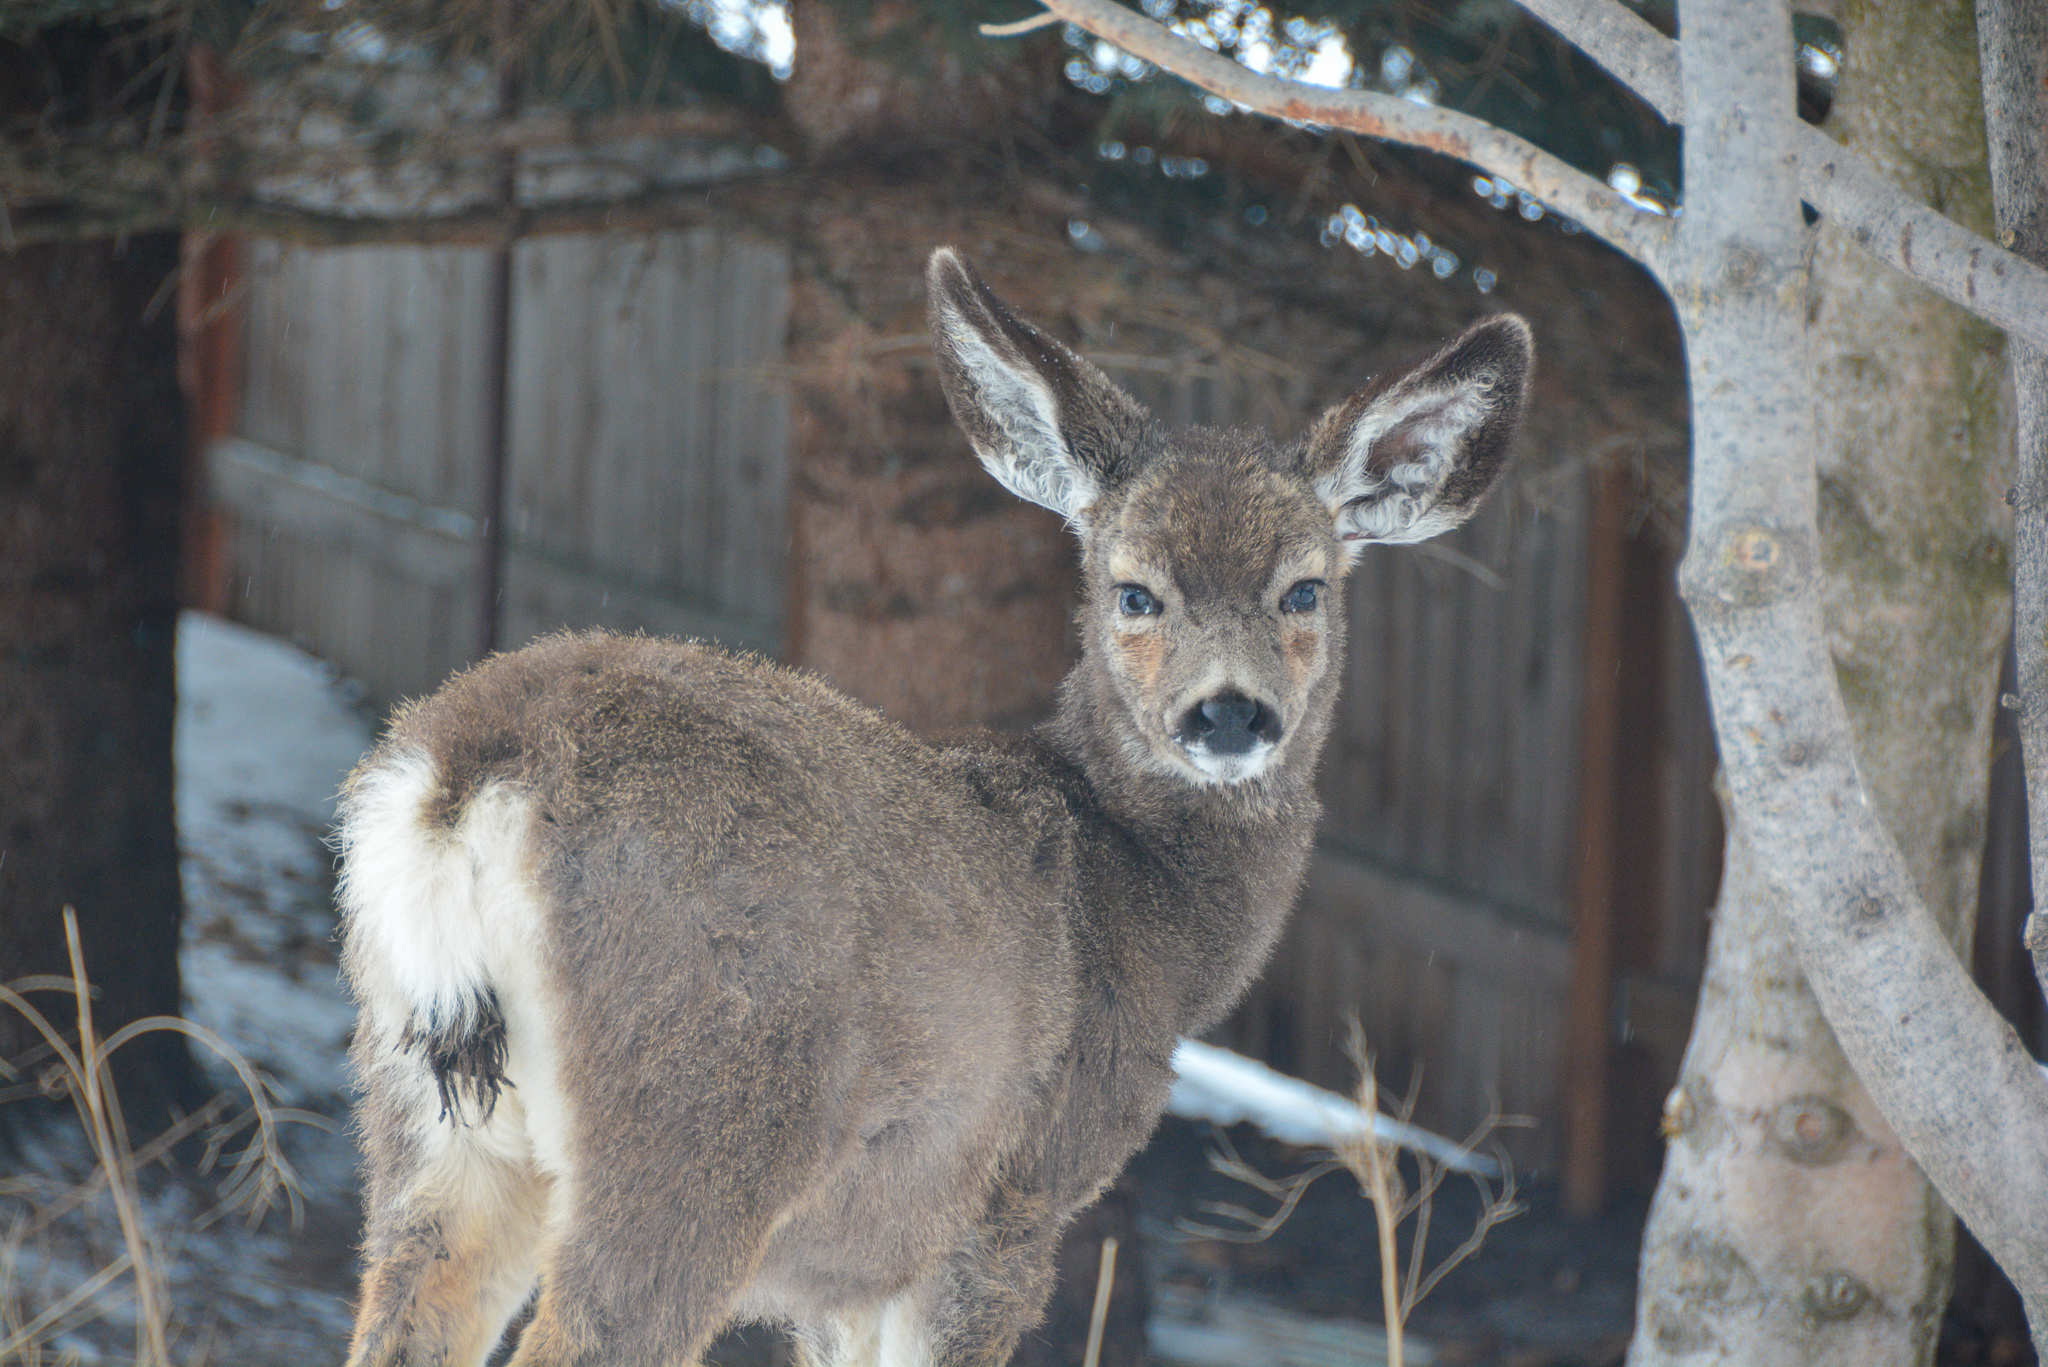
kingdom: Animalia
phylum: Chordata
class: Mammalia
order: Artiodactyla
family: Cervidae
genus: Odocoileus
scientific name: Odocoileus hemionus
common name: Mule deer
